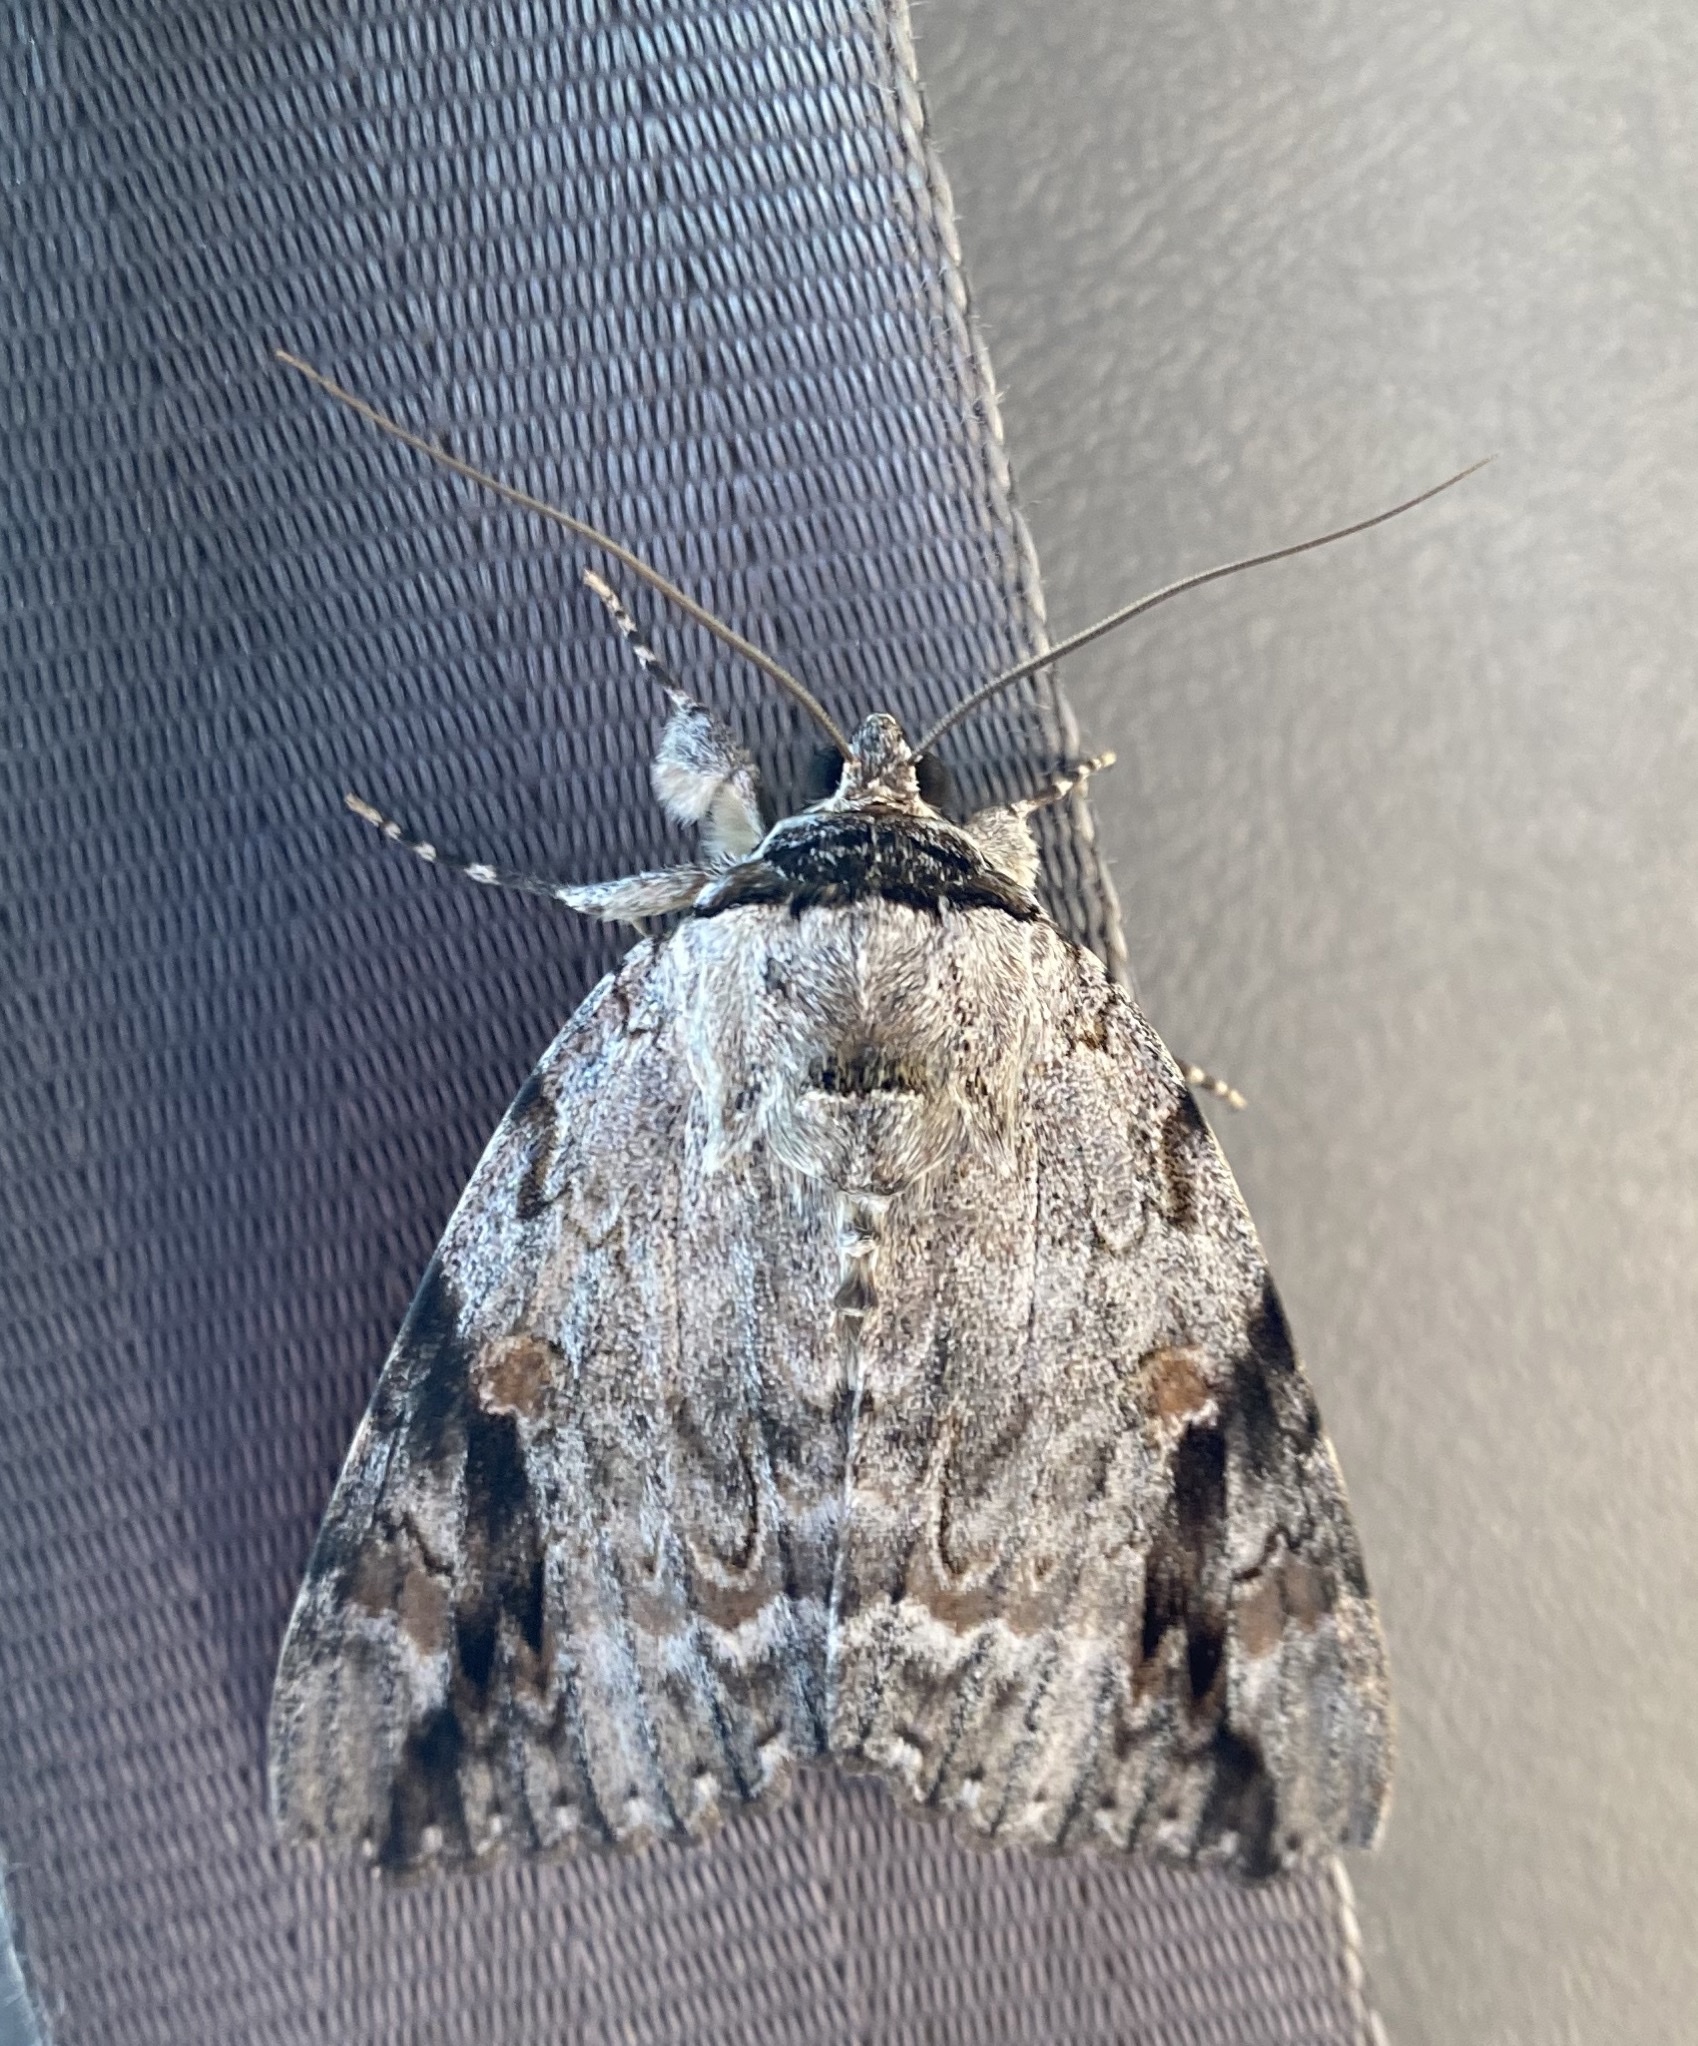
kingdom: Animalia
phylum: Arthropoda
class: Insecta
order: Lepidoptera
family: Erebidae
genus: Catocala
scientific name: Catocala maestosa
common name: Sad underwing
